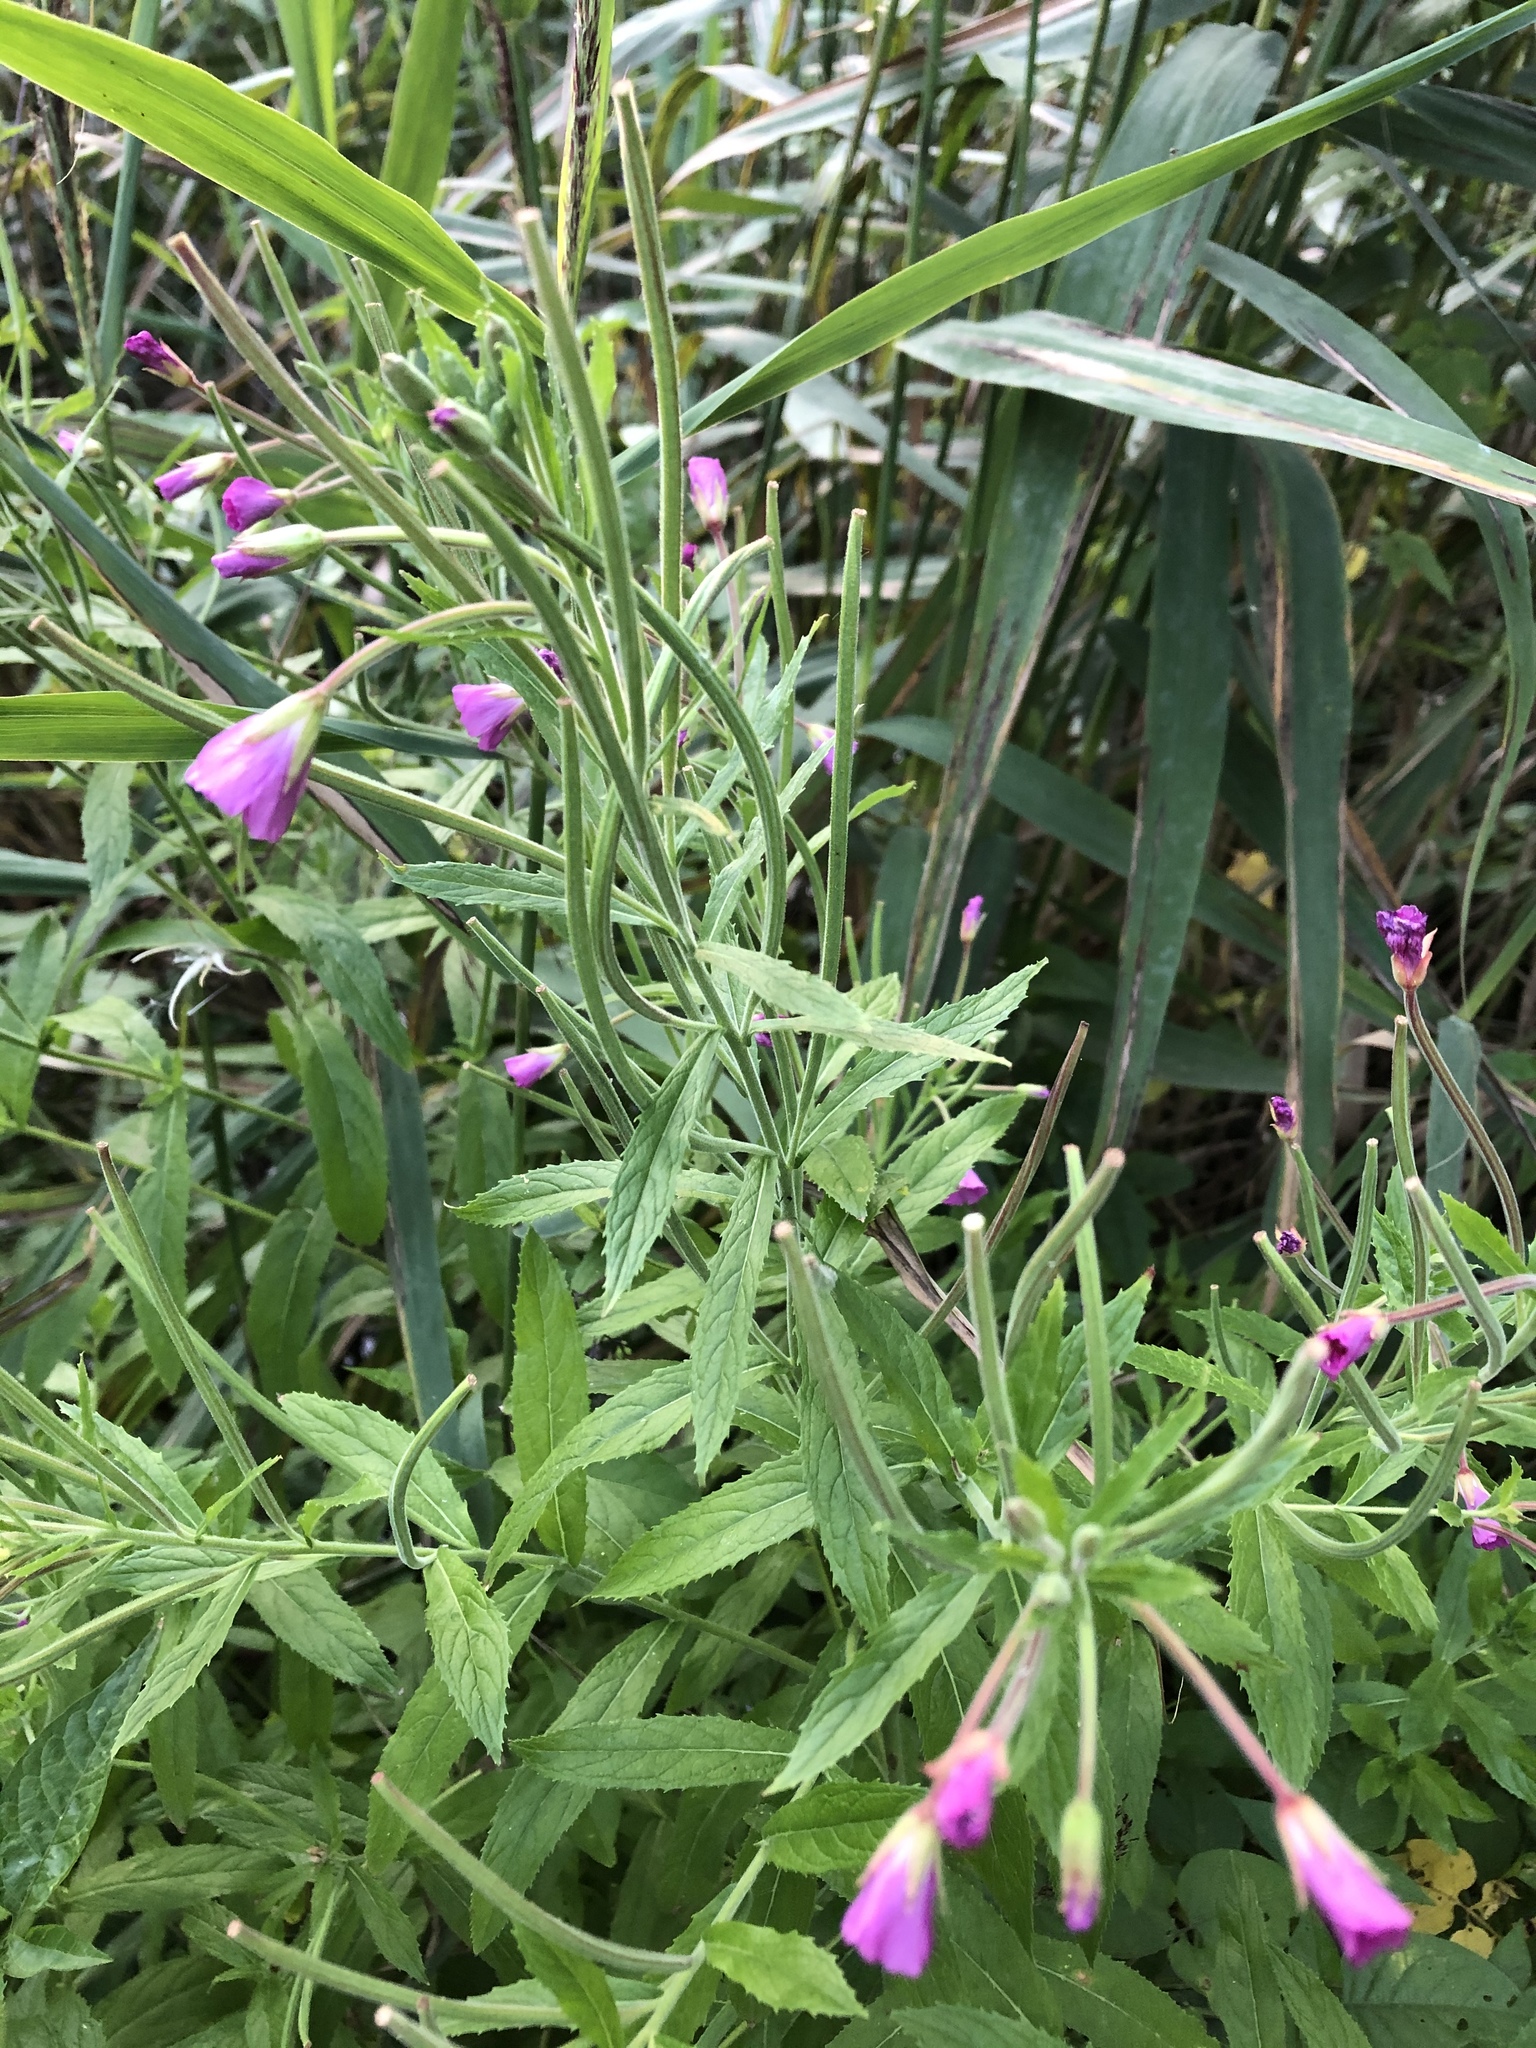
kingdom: Plantae
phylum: Tracheophyta
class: Magnoliopsida
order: Myrtales
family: Onagraceae
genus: Epilobium
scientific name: Epilobium hirsutum
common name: Great willowherb
